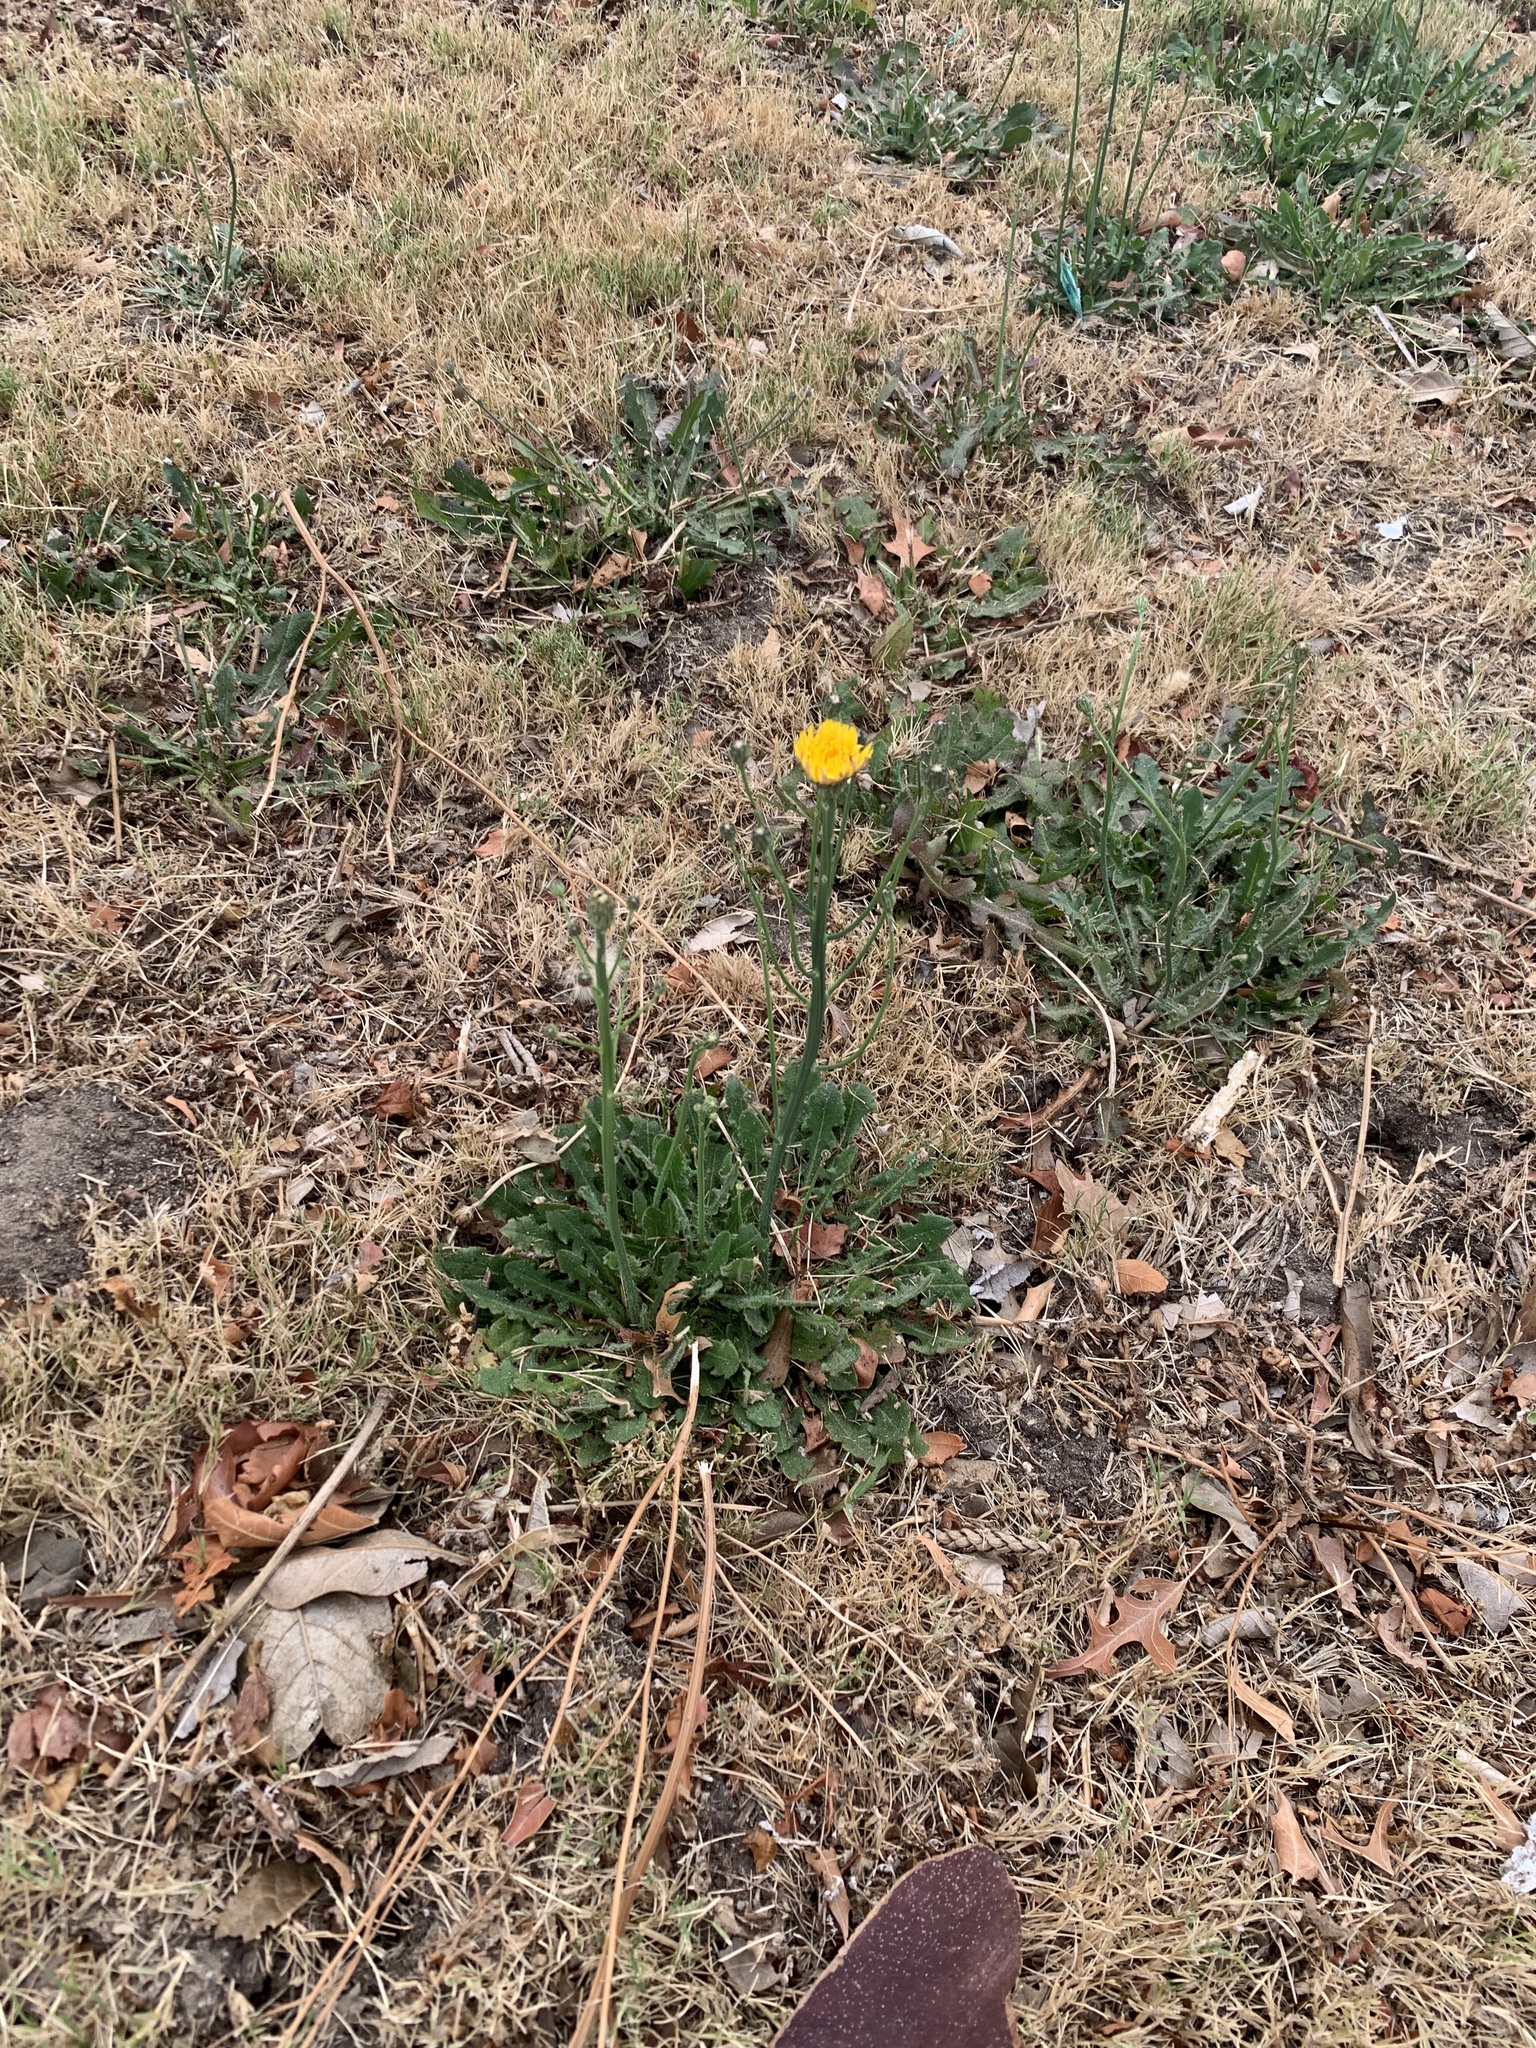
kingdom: Plantae
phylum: Tracheophyta
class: Magnoliopsida
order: Asterales
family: Asteraceae
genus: Hypochaeris
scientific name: Hypochaeris radicata
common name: Flatweed
